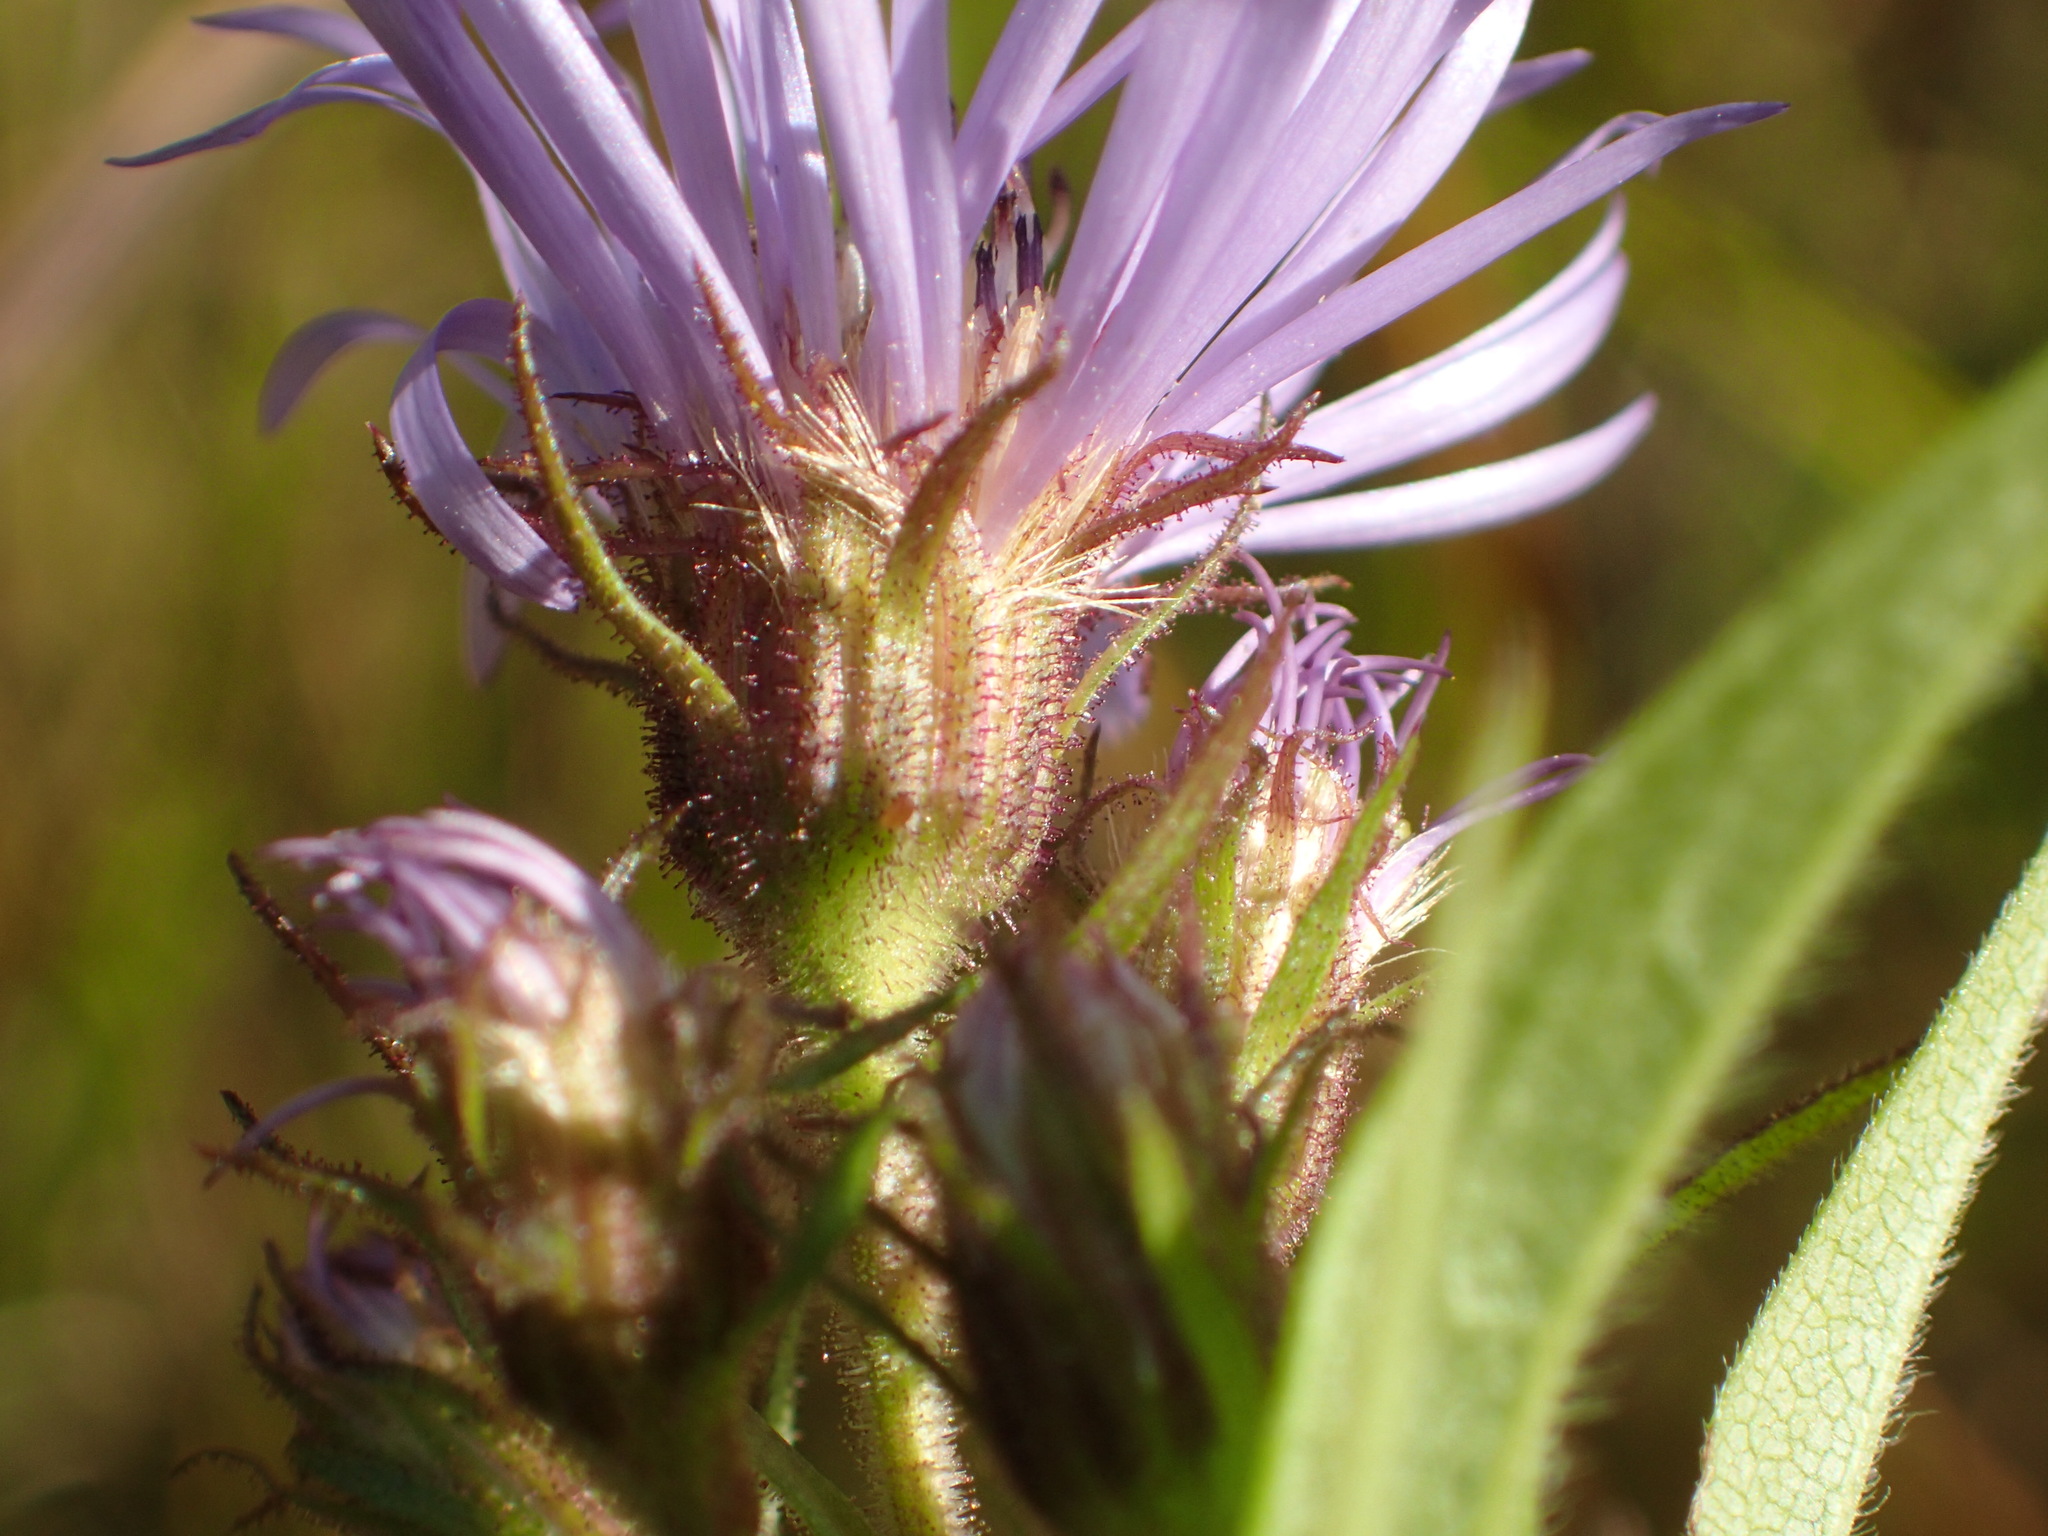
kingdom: Plantae
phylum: Tracheophyta
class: Magnoliopsida
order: Asterales
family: Asteraceae
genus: Canadanthus
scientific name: Canadanthus modestus
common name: Great northern aster
